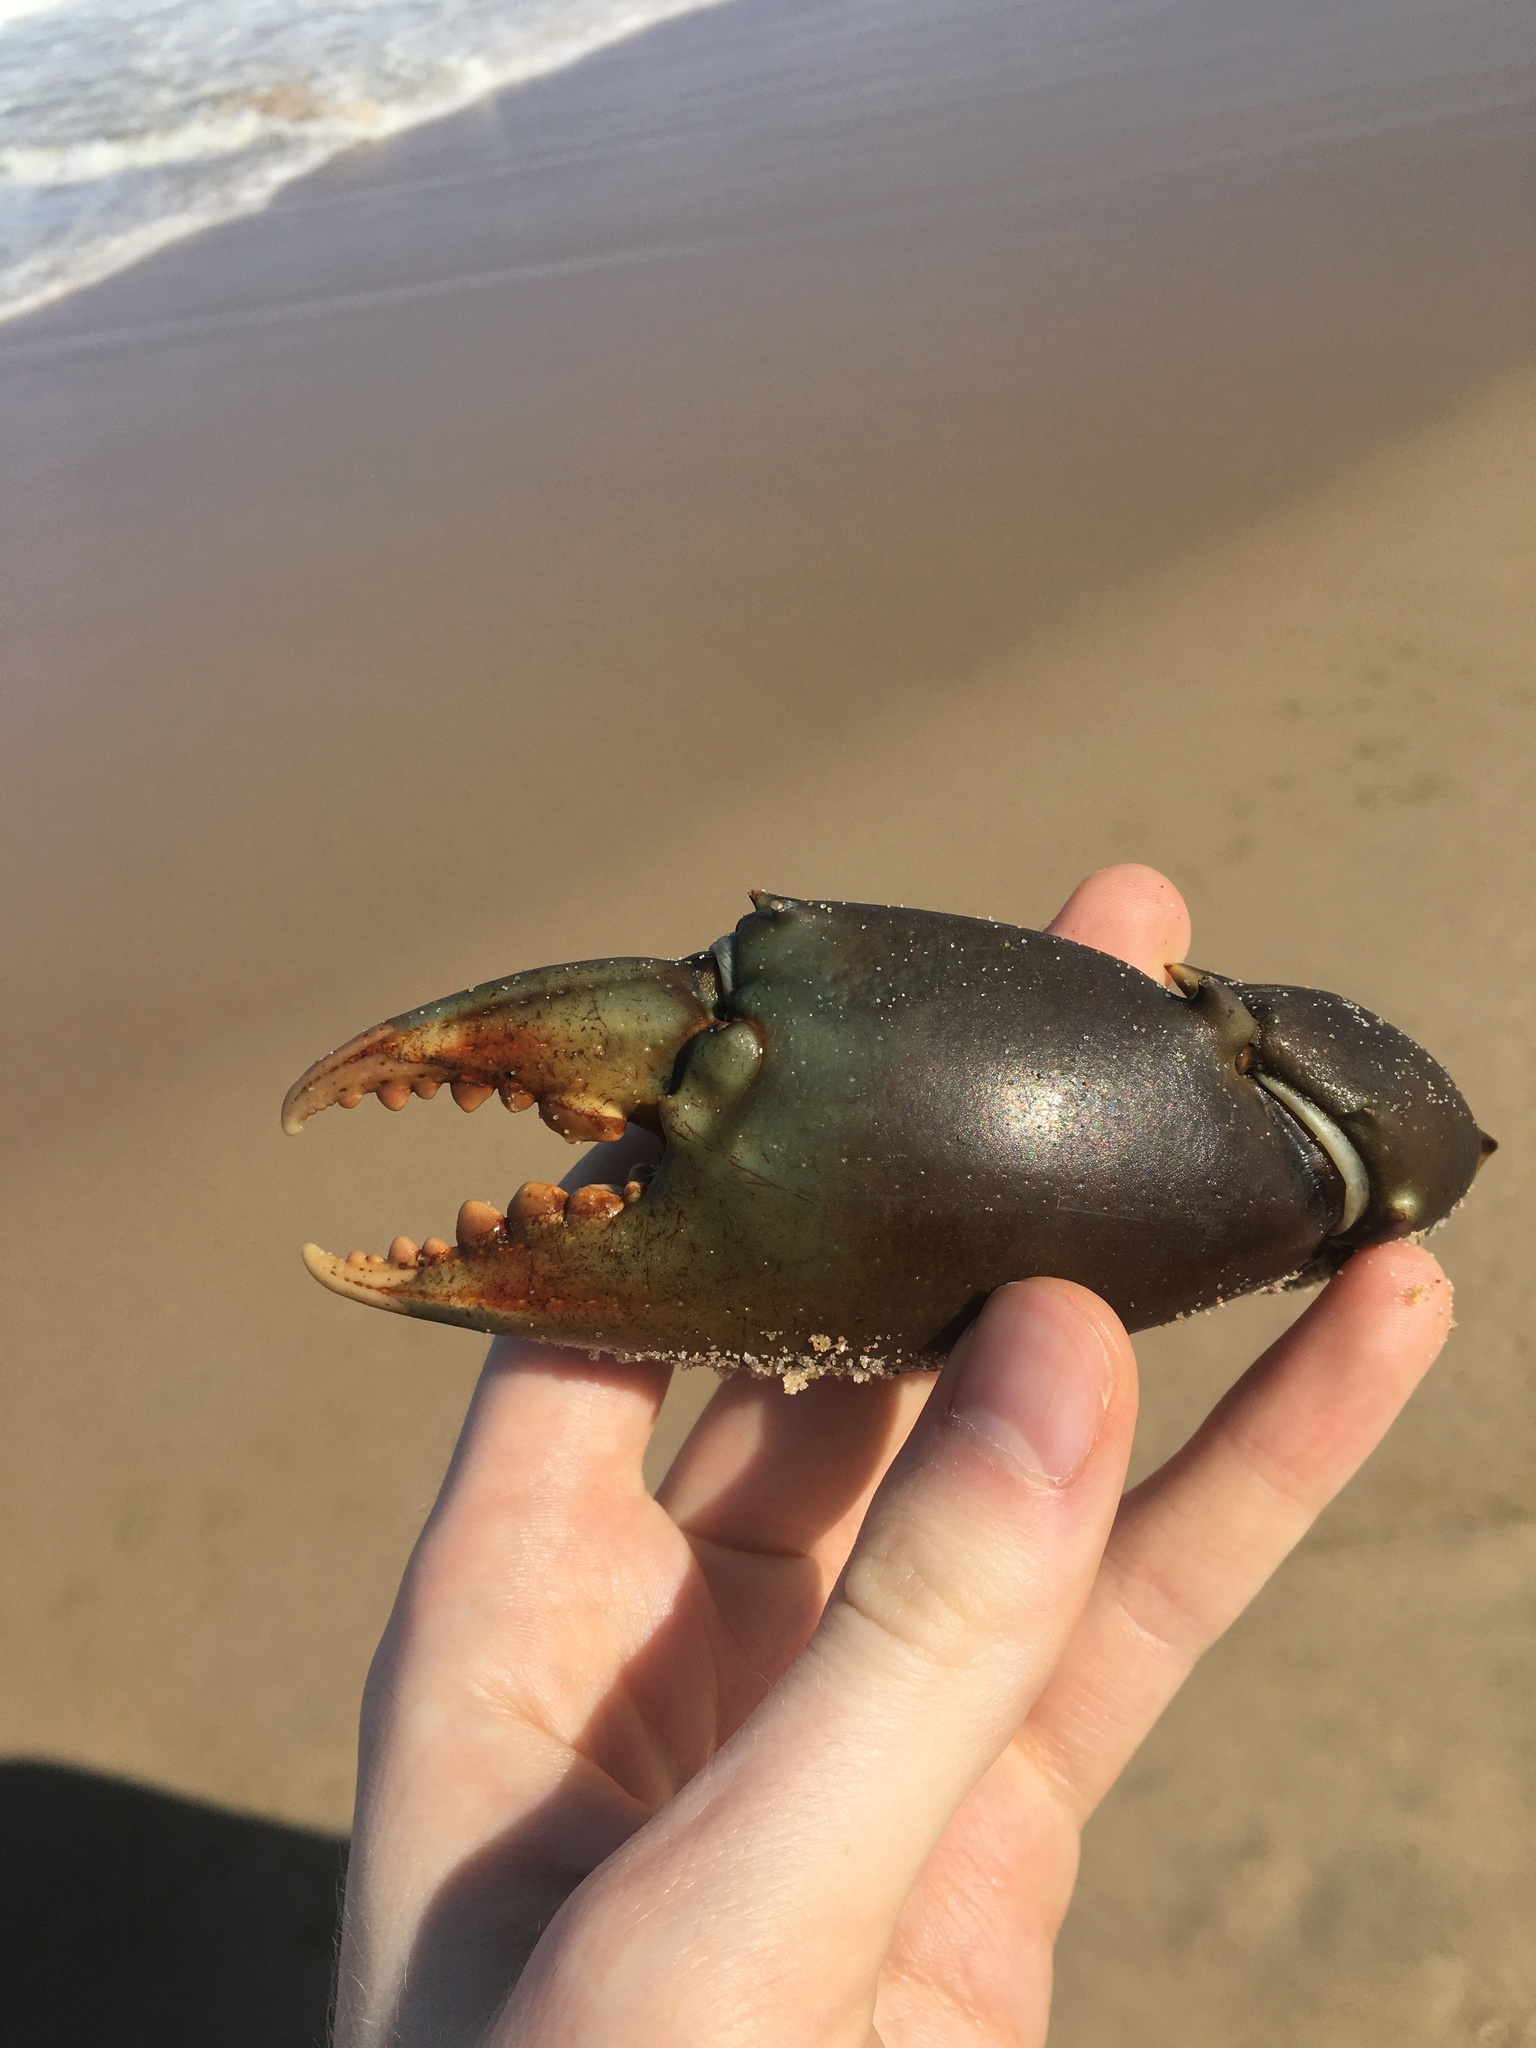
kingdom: Animalia
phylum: Arthropoda
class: Malacostraca
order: Decapoda
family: Portunidae
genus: Scylla
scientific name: Scylla serrata
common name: Giant mud crab
